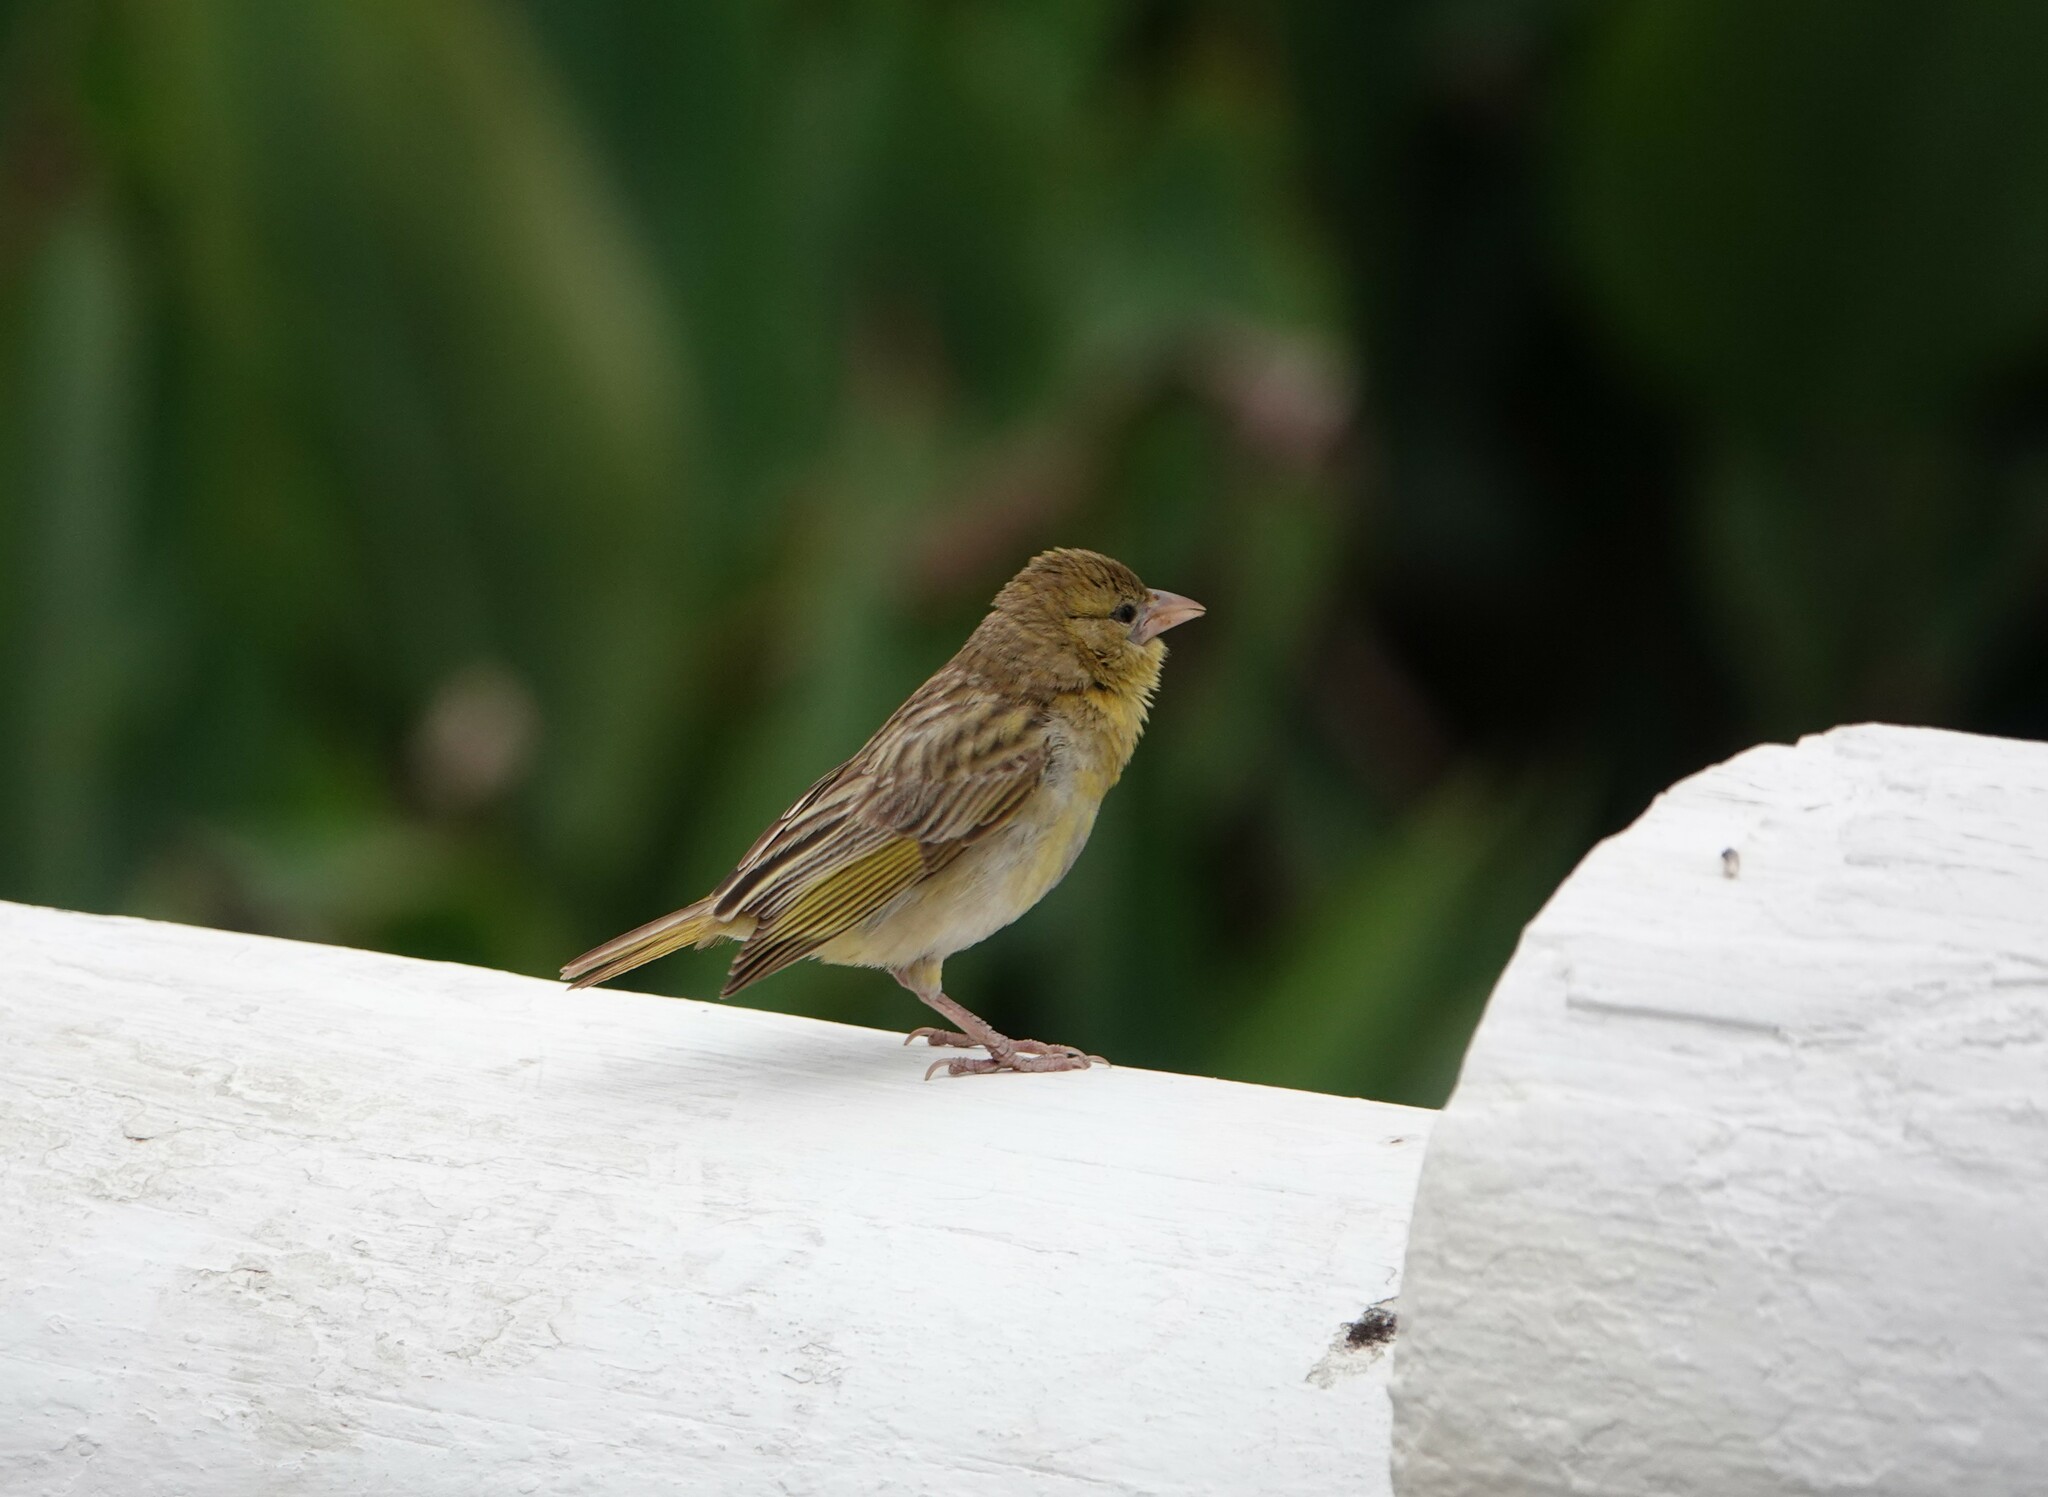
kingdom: Animalia
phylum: Chordata
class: Aves
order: Passeriformes
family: Ploceidae
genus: Ploceus
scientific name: Ploceus velatus
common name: Southern masked weaver
